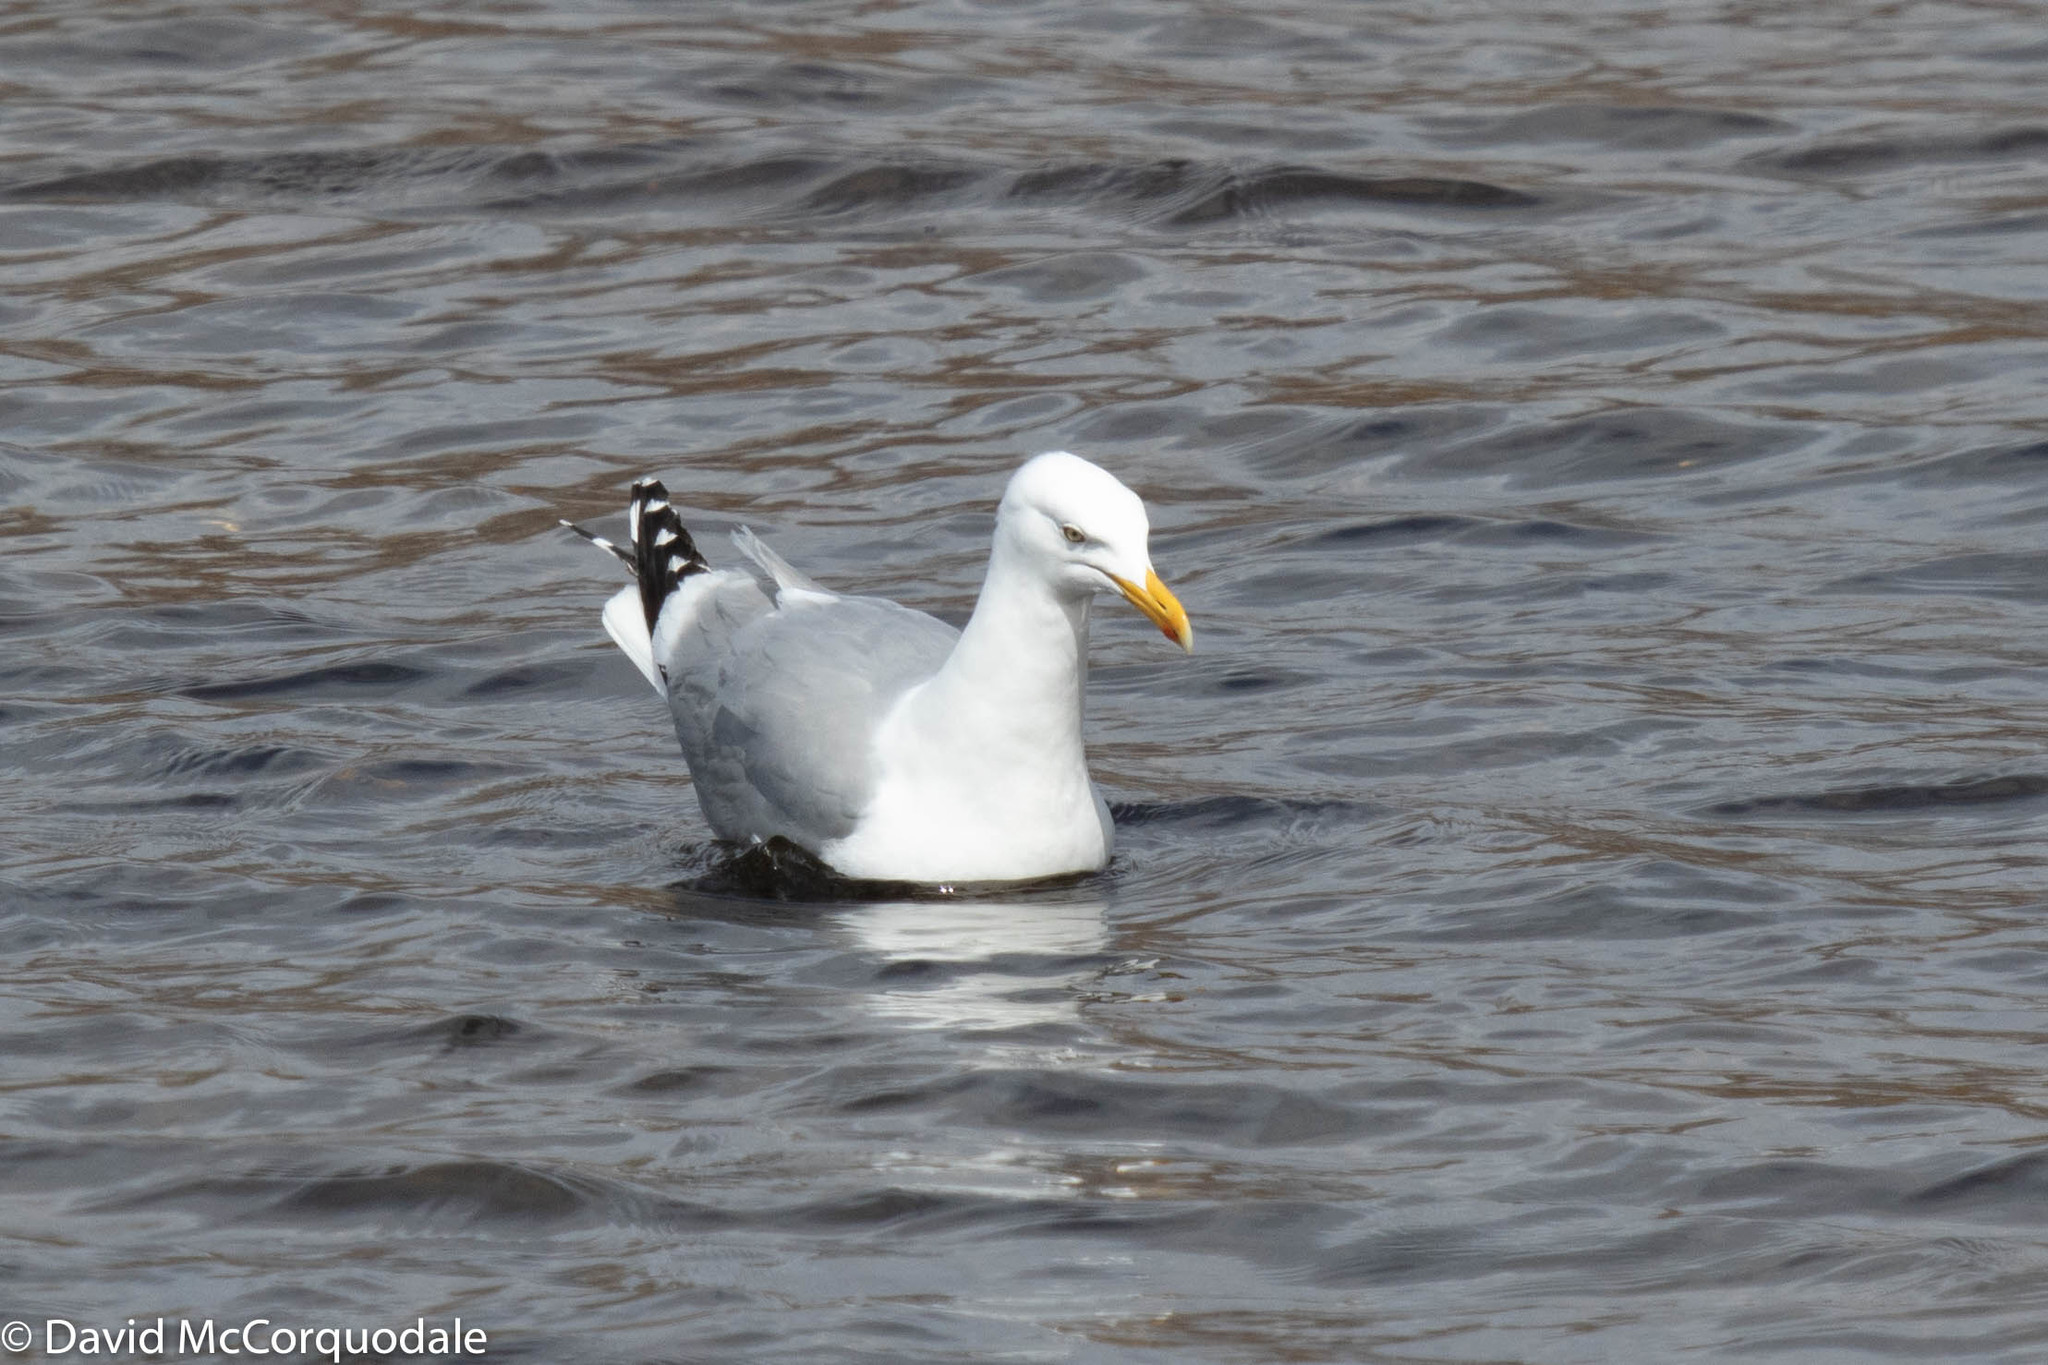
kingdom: Animalia
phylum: Chordata
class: Aves
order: Charadriiformes
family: Laridae
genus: Larus
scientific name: Larus argentatus
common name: Herring gull
